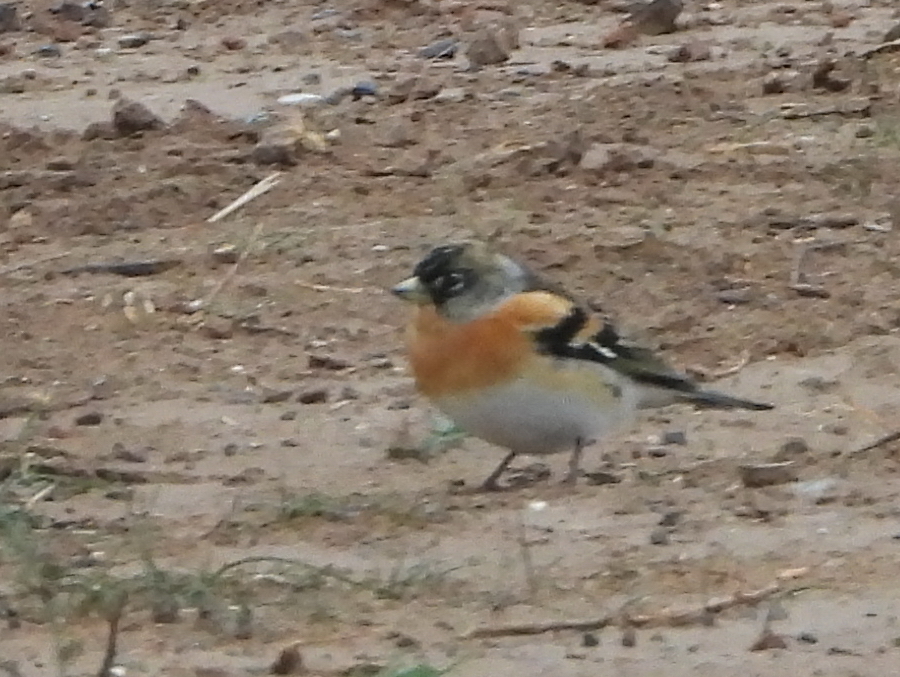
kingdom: Animalia
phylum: Chordata
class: Aves
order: Passeriformes
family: Fringillidae
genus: Fringilla
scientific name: Fringilla montifringilla
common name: Brambling
